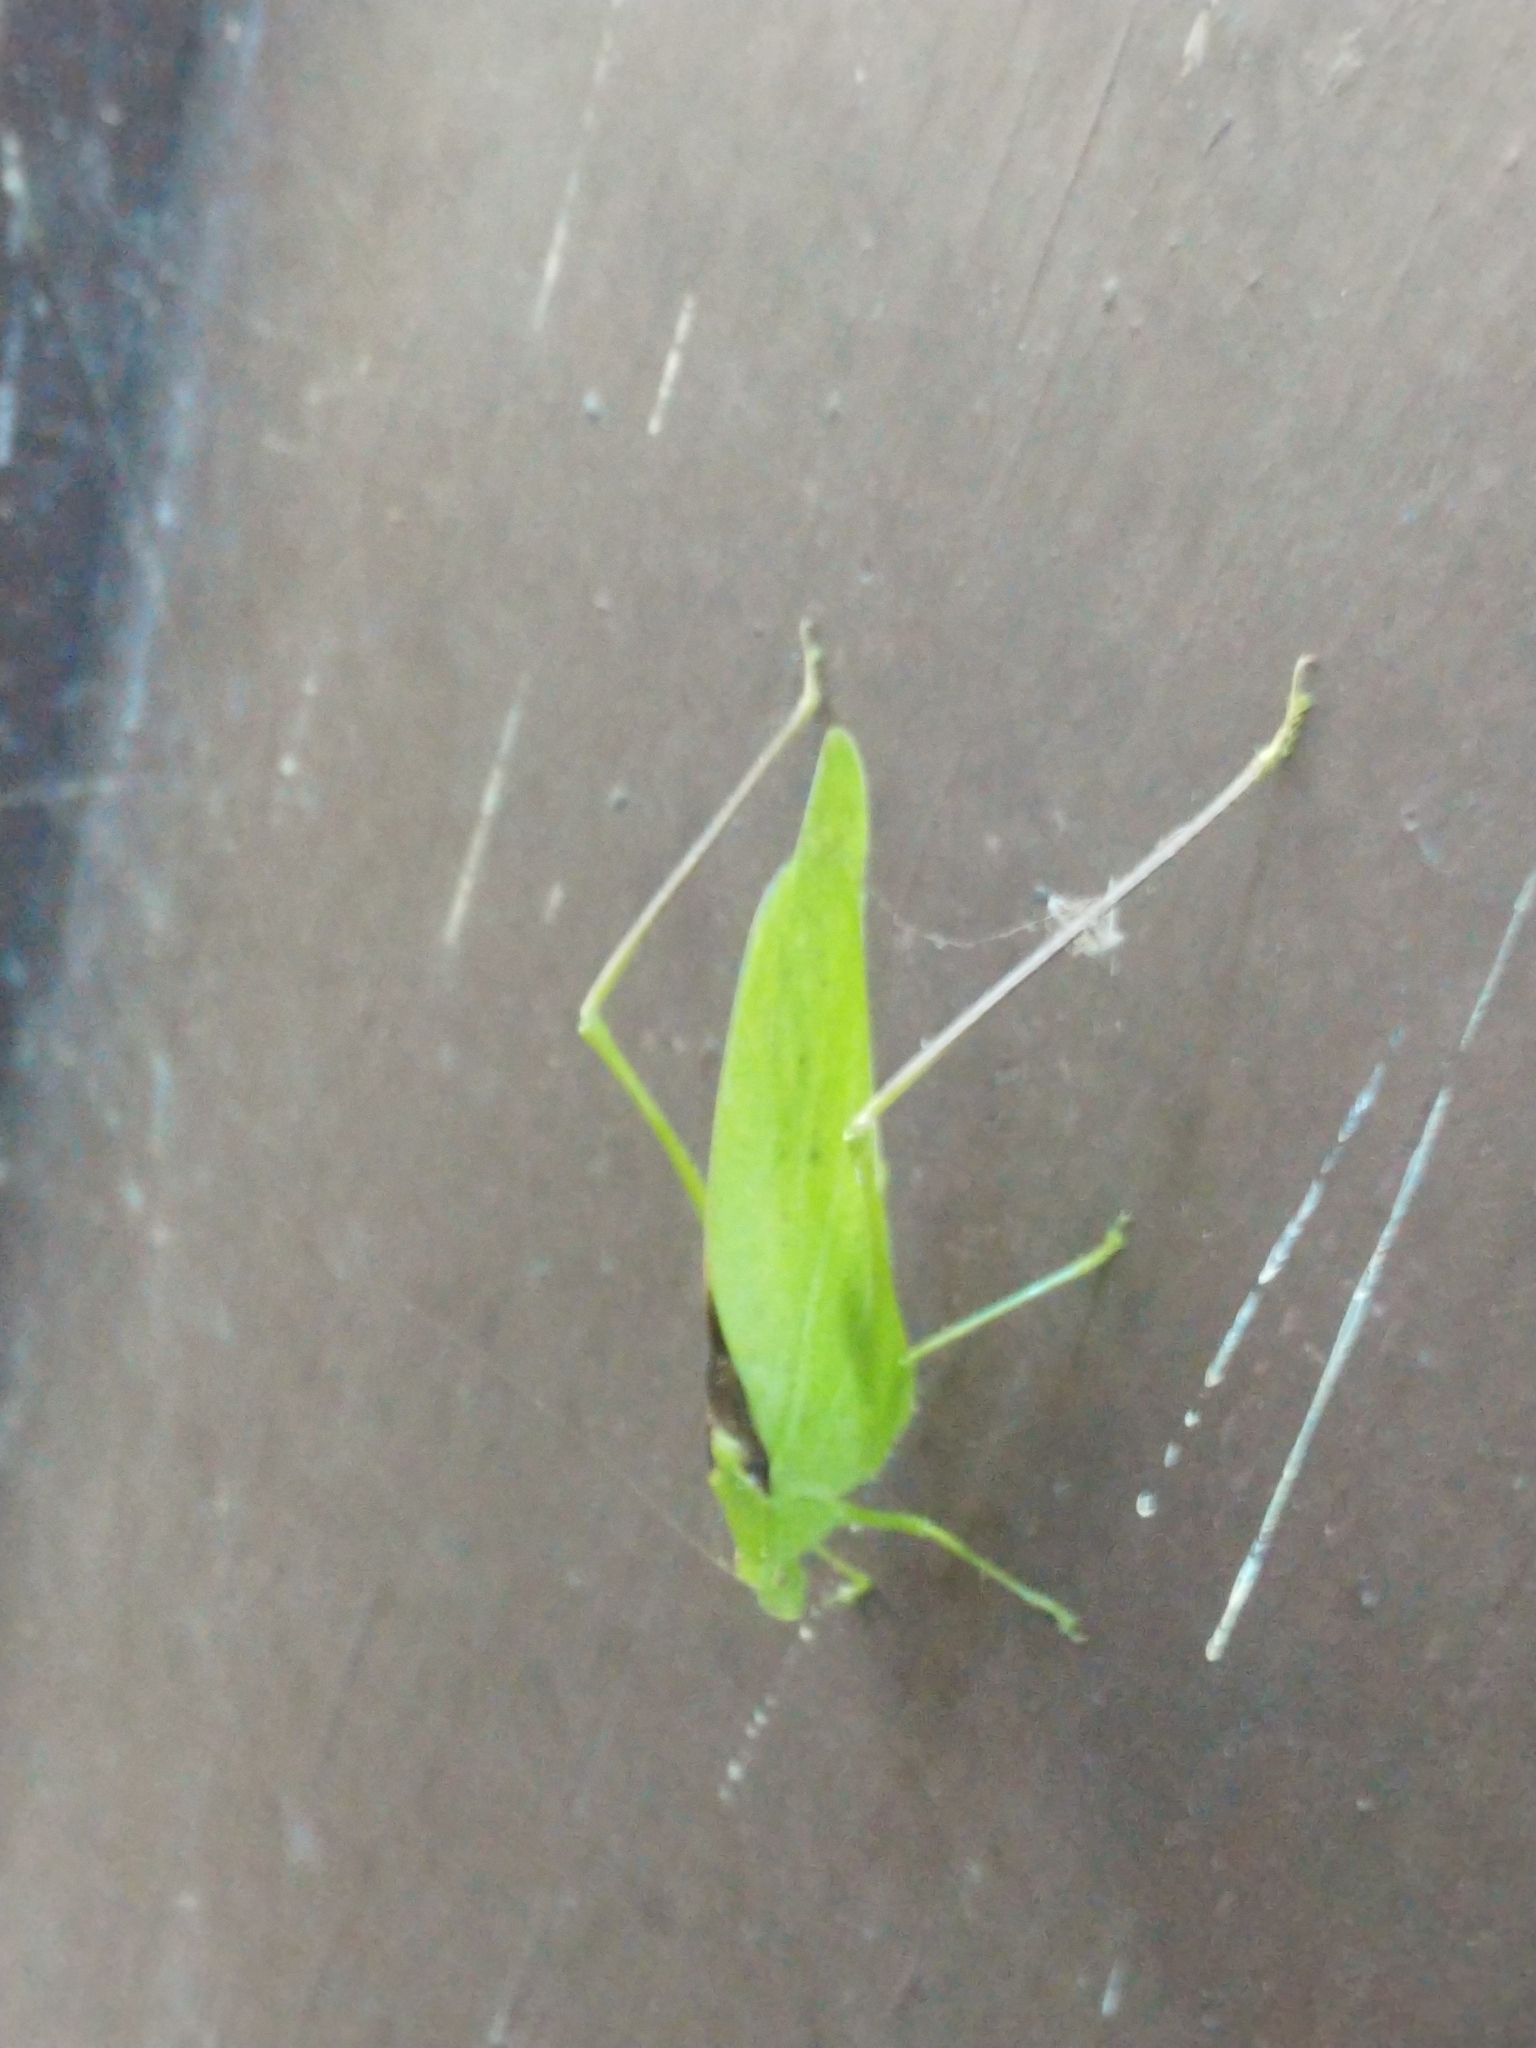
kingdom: Animalia
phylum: Arthropoda
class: Insecta
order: Orthoptera
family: Tettigoniidae
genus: Amblycorypha
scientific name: Amblycorypha oblongifolia
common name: Oblong-winged katydid
